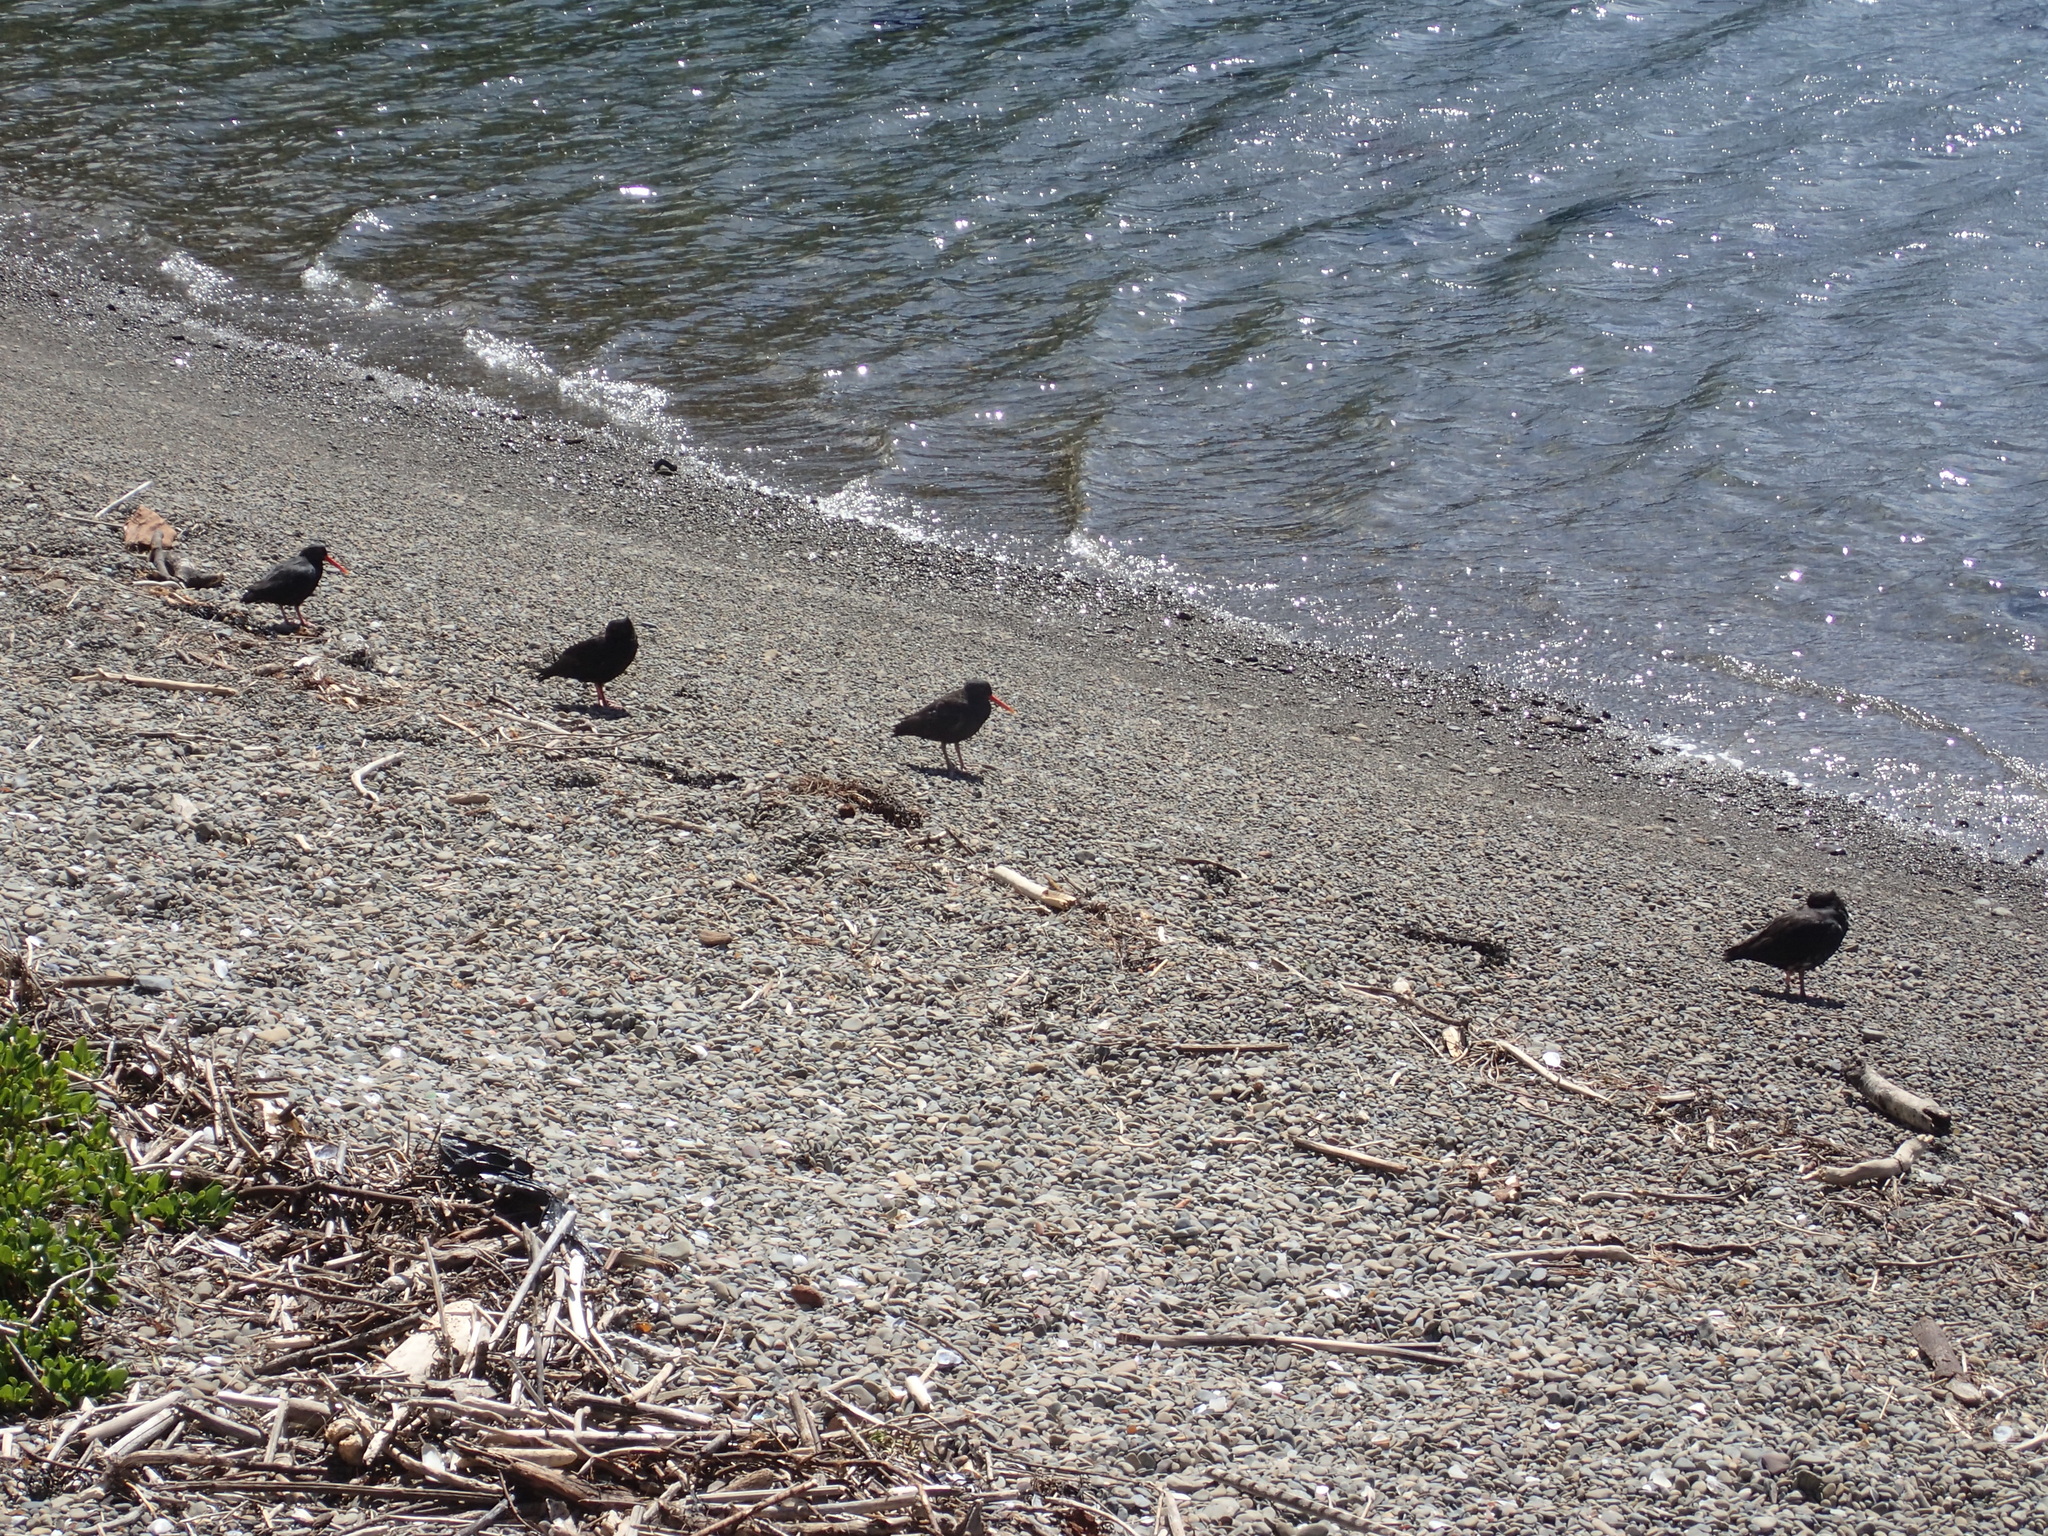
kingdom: Animalia
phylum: Chordata
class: Aves
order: Charadriiformes
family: Haematopodidae
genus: Haematopus
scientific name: Haematopus unicolor
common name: Variable oystercatcher
